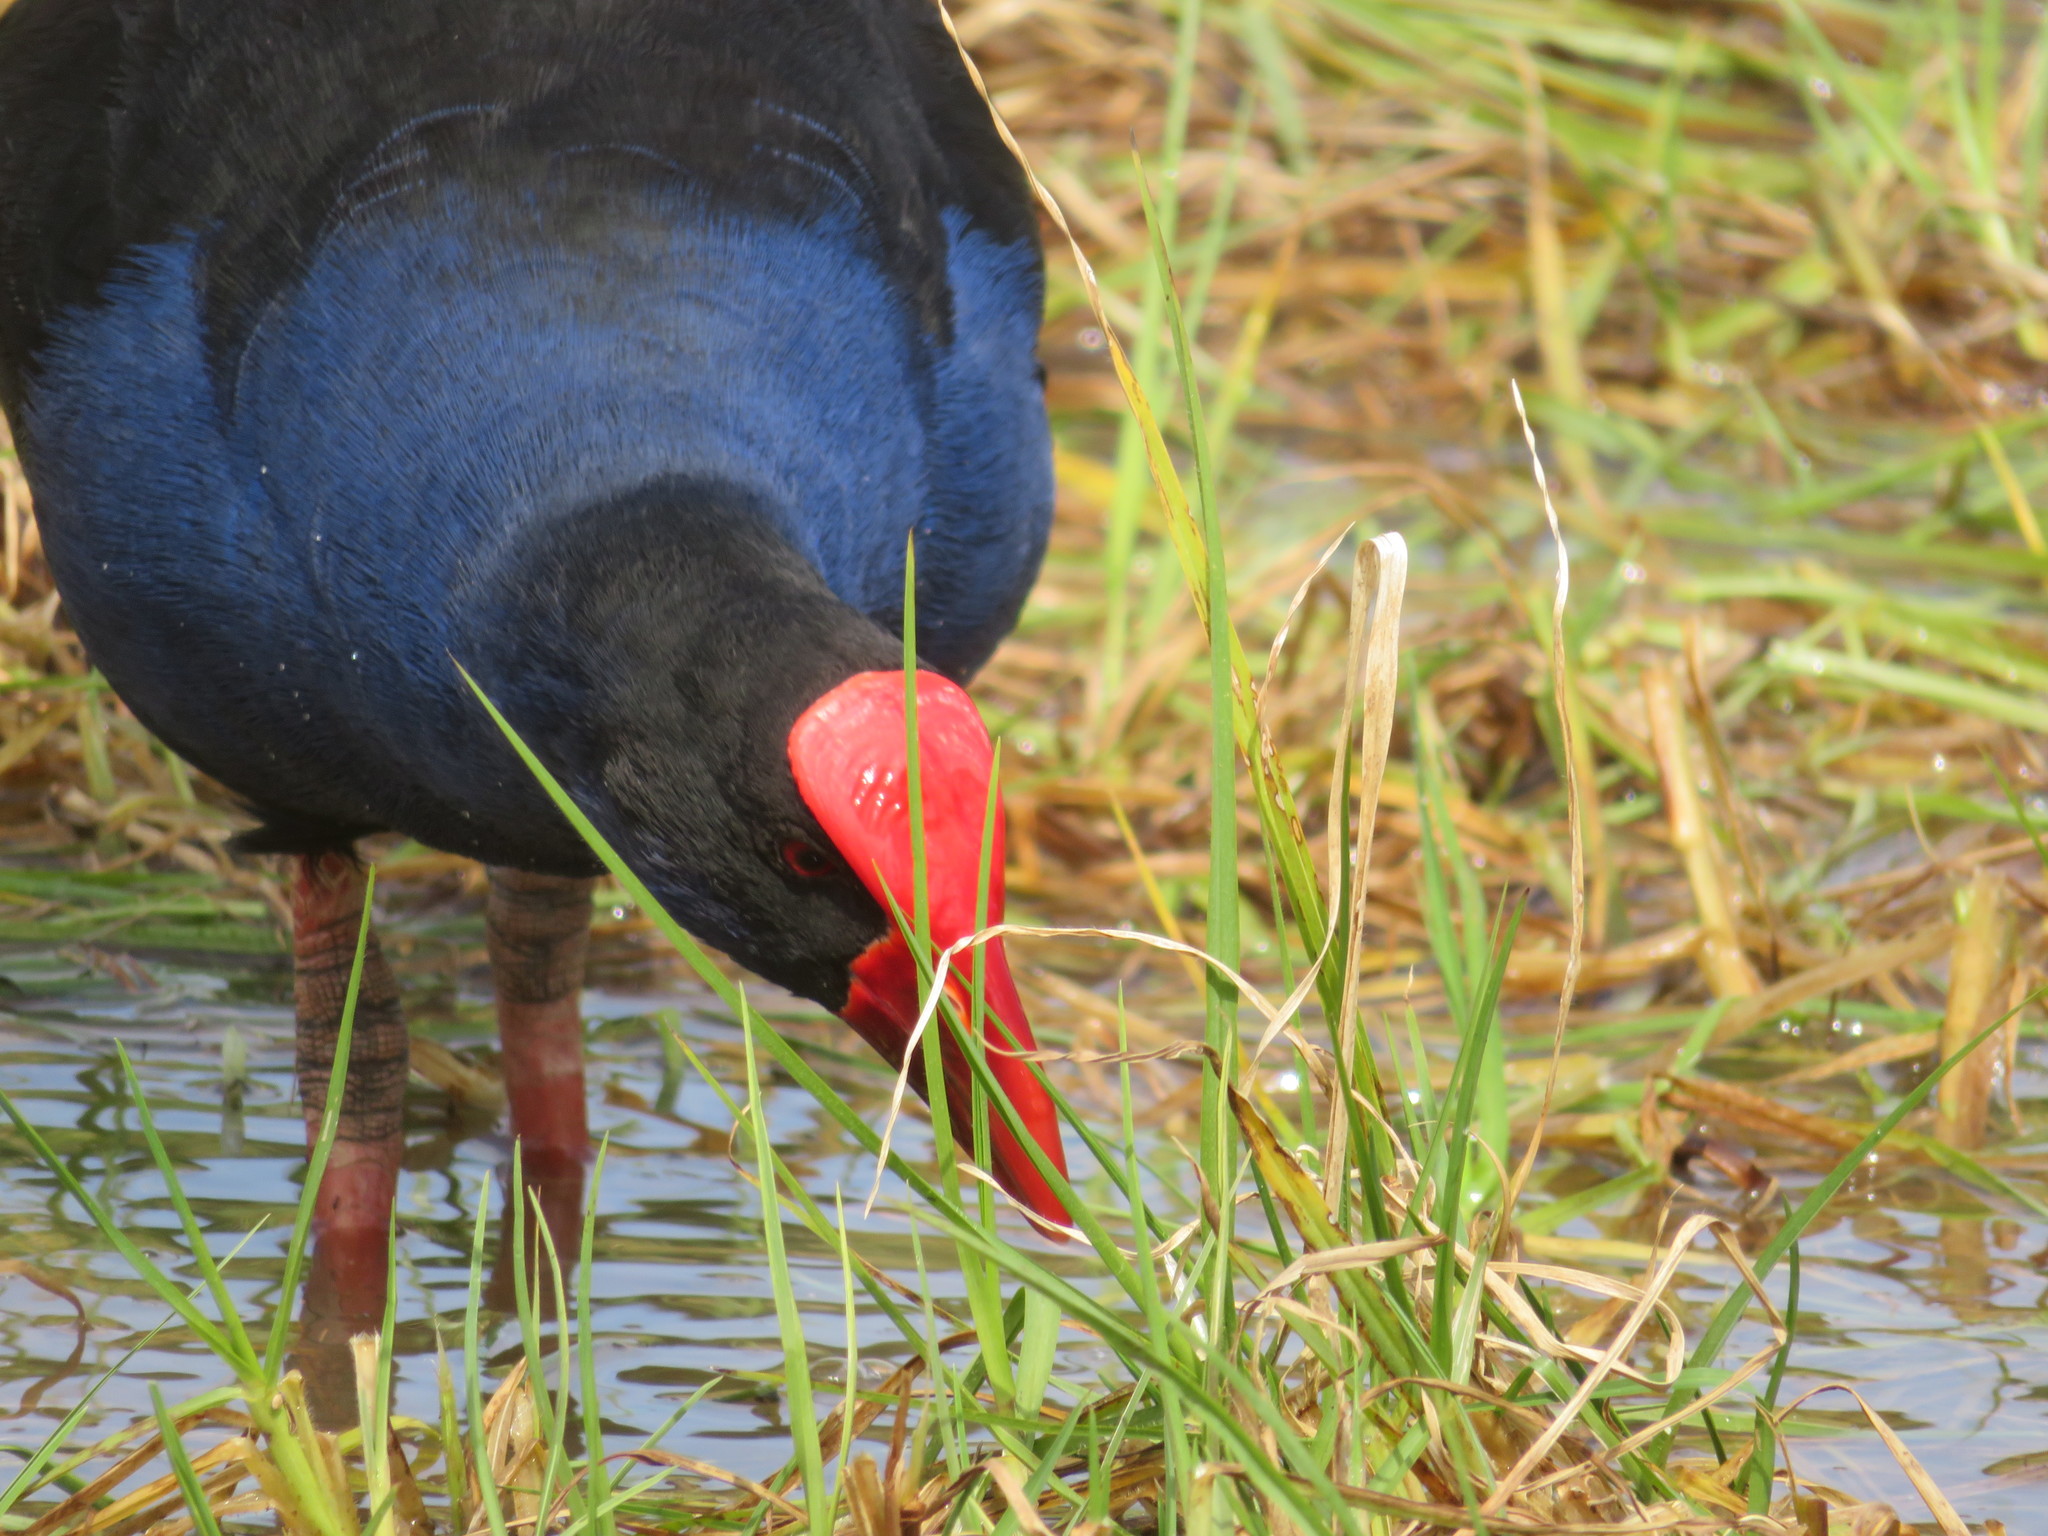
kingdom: Animalia
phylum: Chordata
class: Aves
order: Gruiformes
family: Rallidae
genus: Porphyrio
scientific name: Porphyrio melanotus
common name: Australasian swamphen
